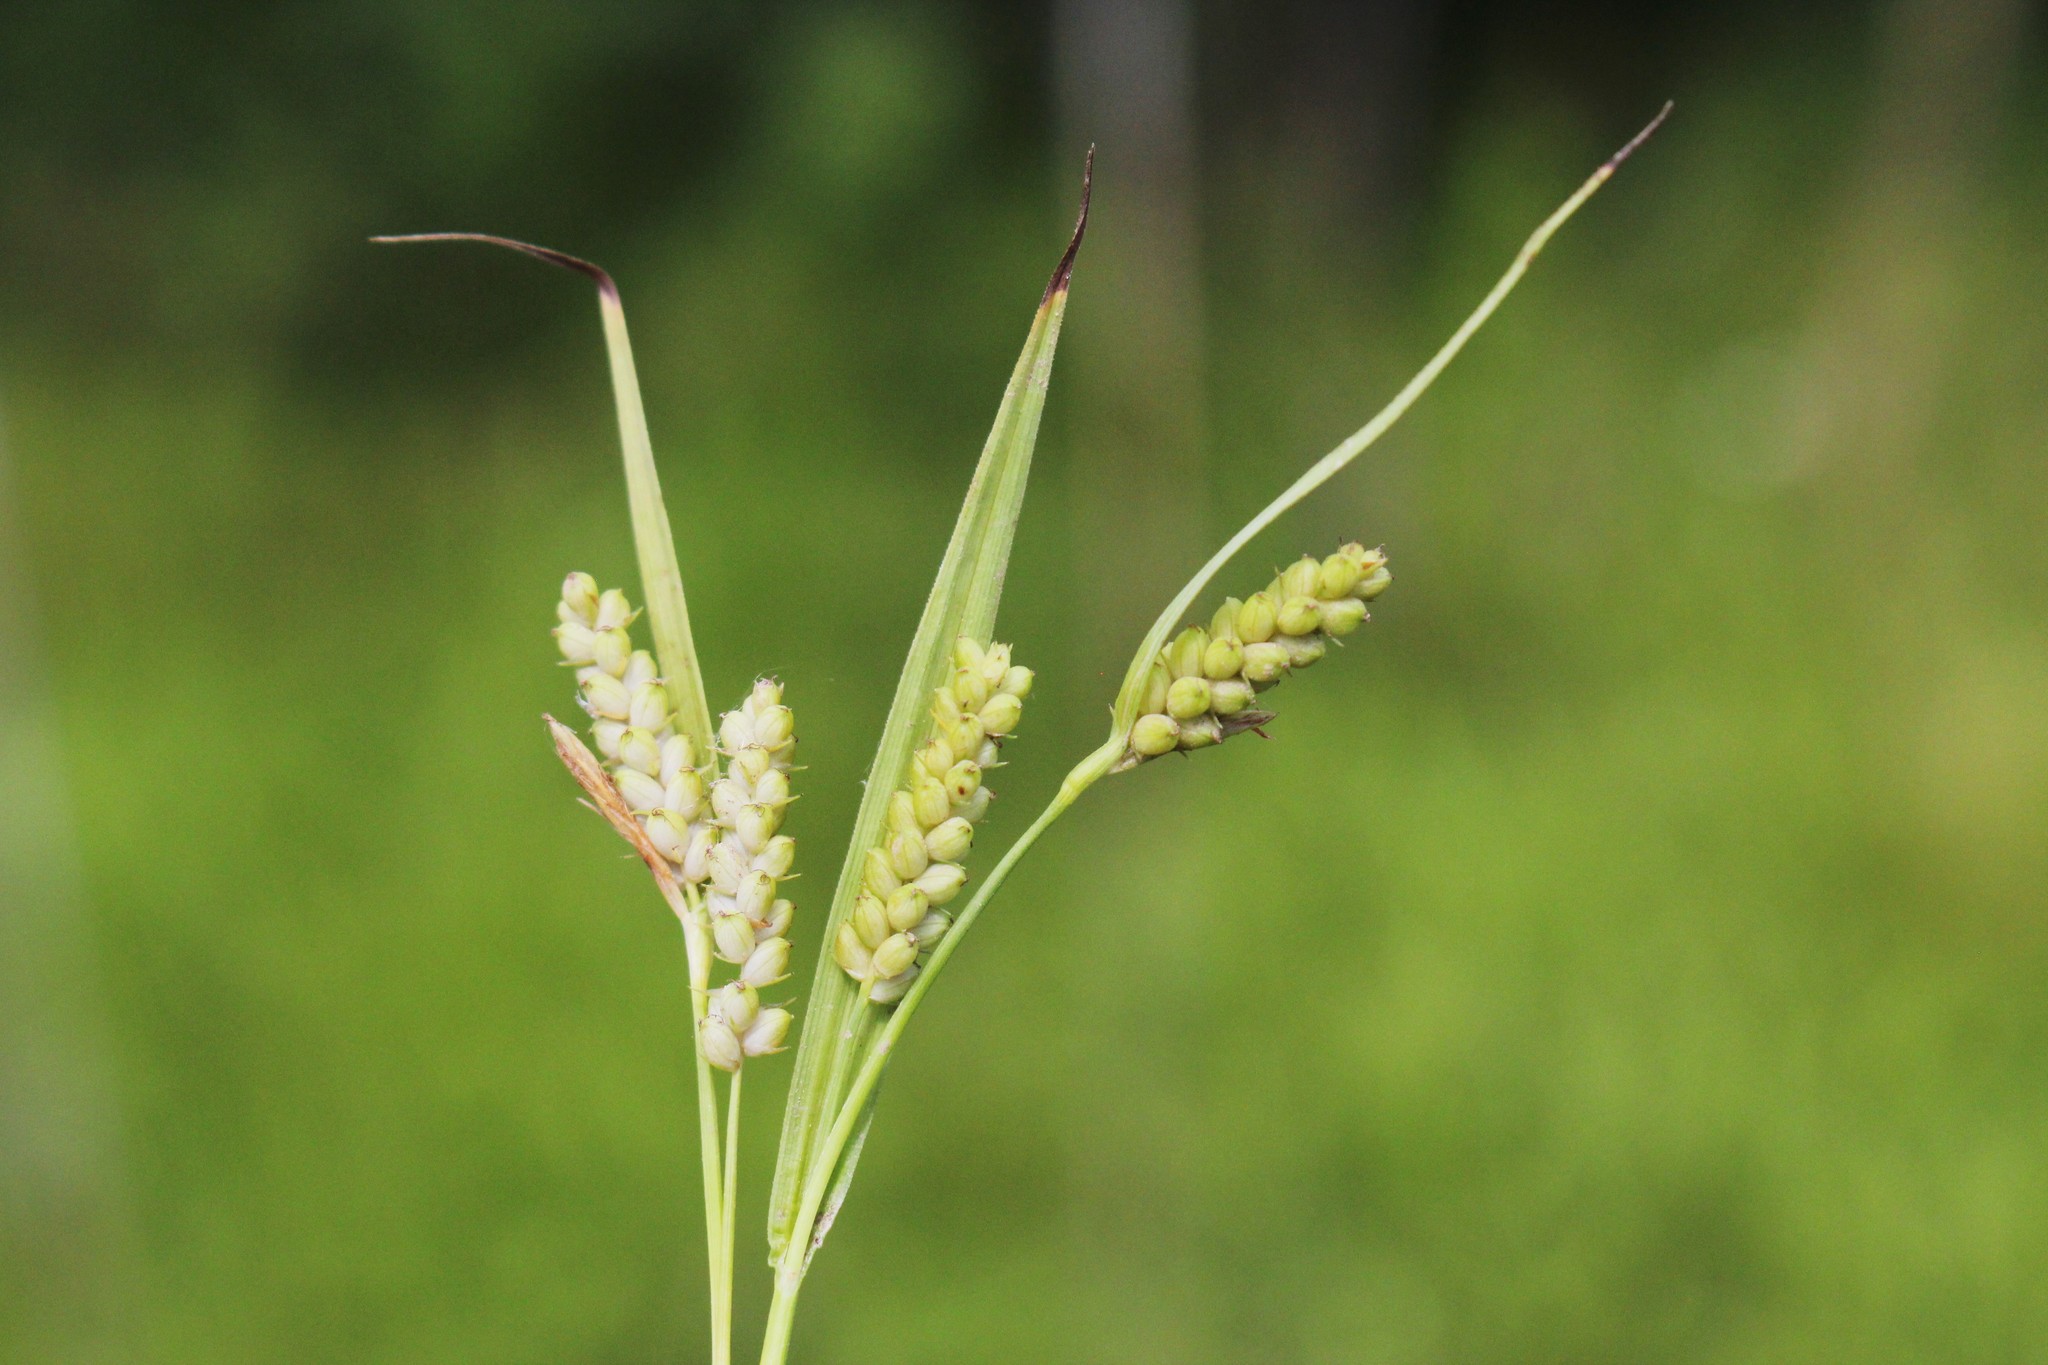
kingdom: Plantae
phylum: Tracheophyta
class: Liliopsida
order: Poales
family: Cyperaceae
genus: Carex
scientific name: Carex granularis
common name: Granular sedge
